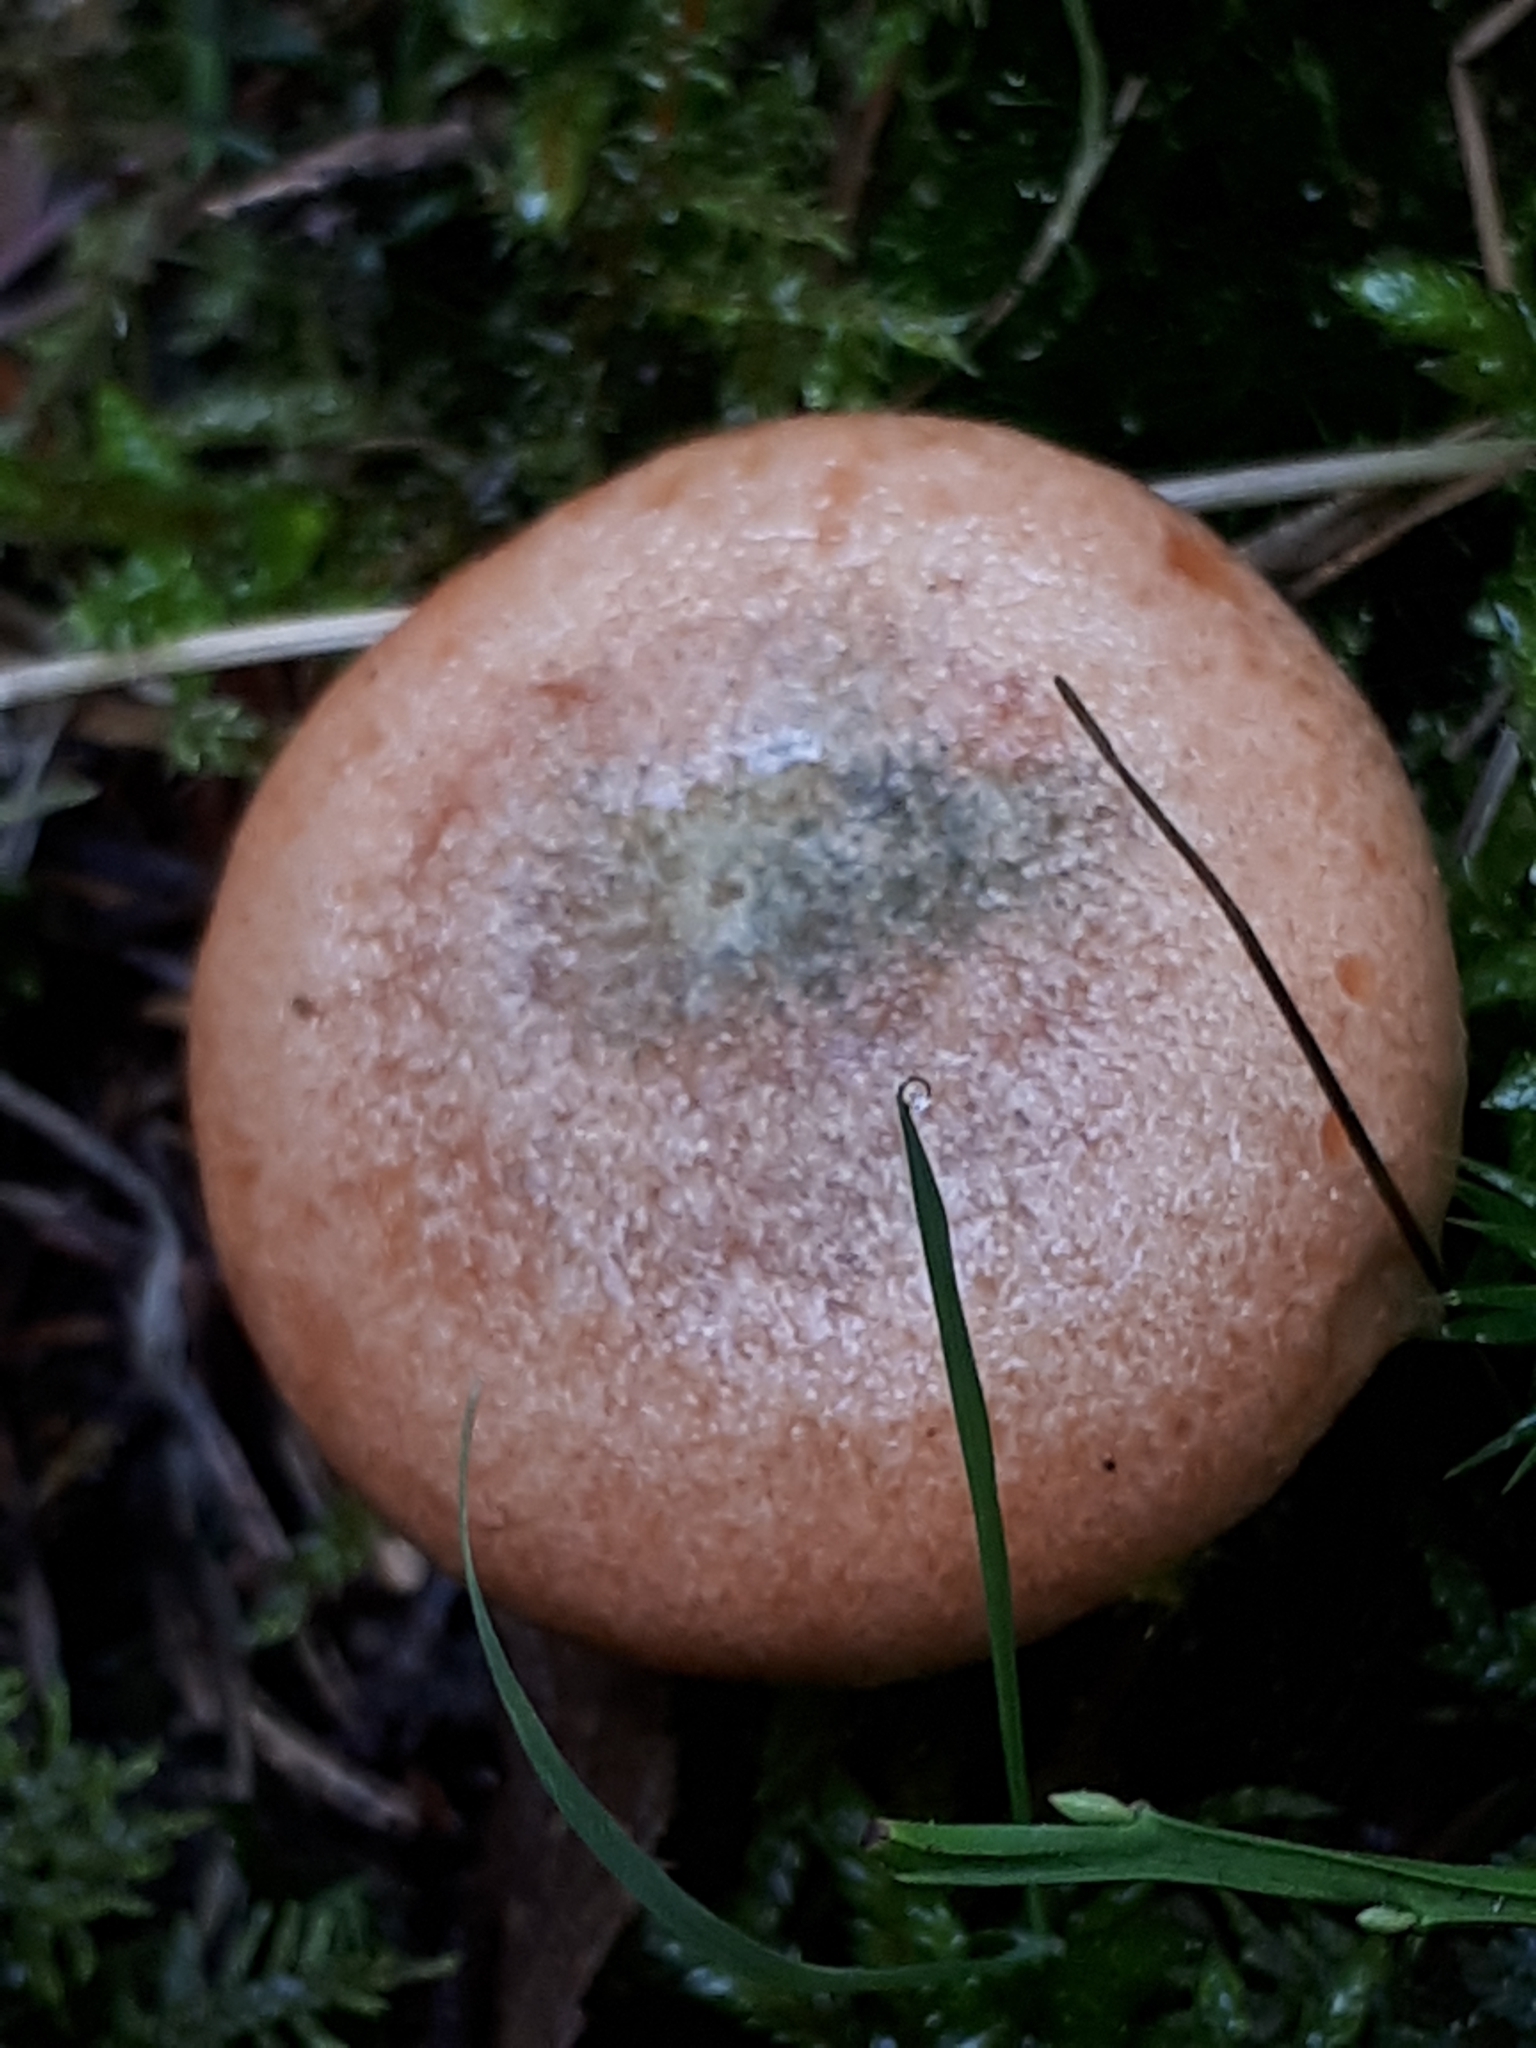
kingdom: Fungi
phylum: Basidiomycota
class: Agaricomycetes
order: Russulales
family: Russulaceae
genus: Lactarius
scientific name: Lactarius deterrimus
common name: False saffron milkcap
